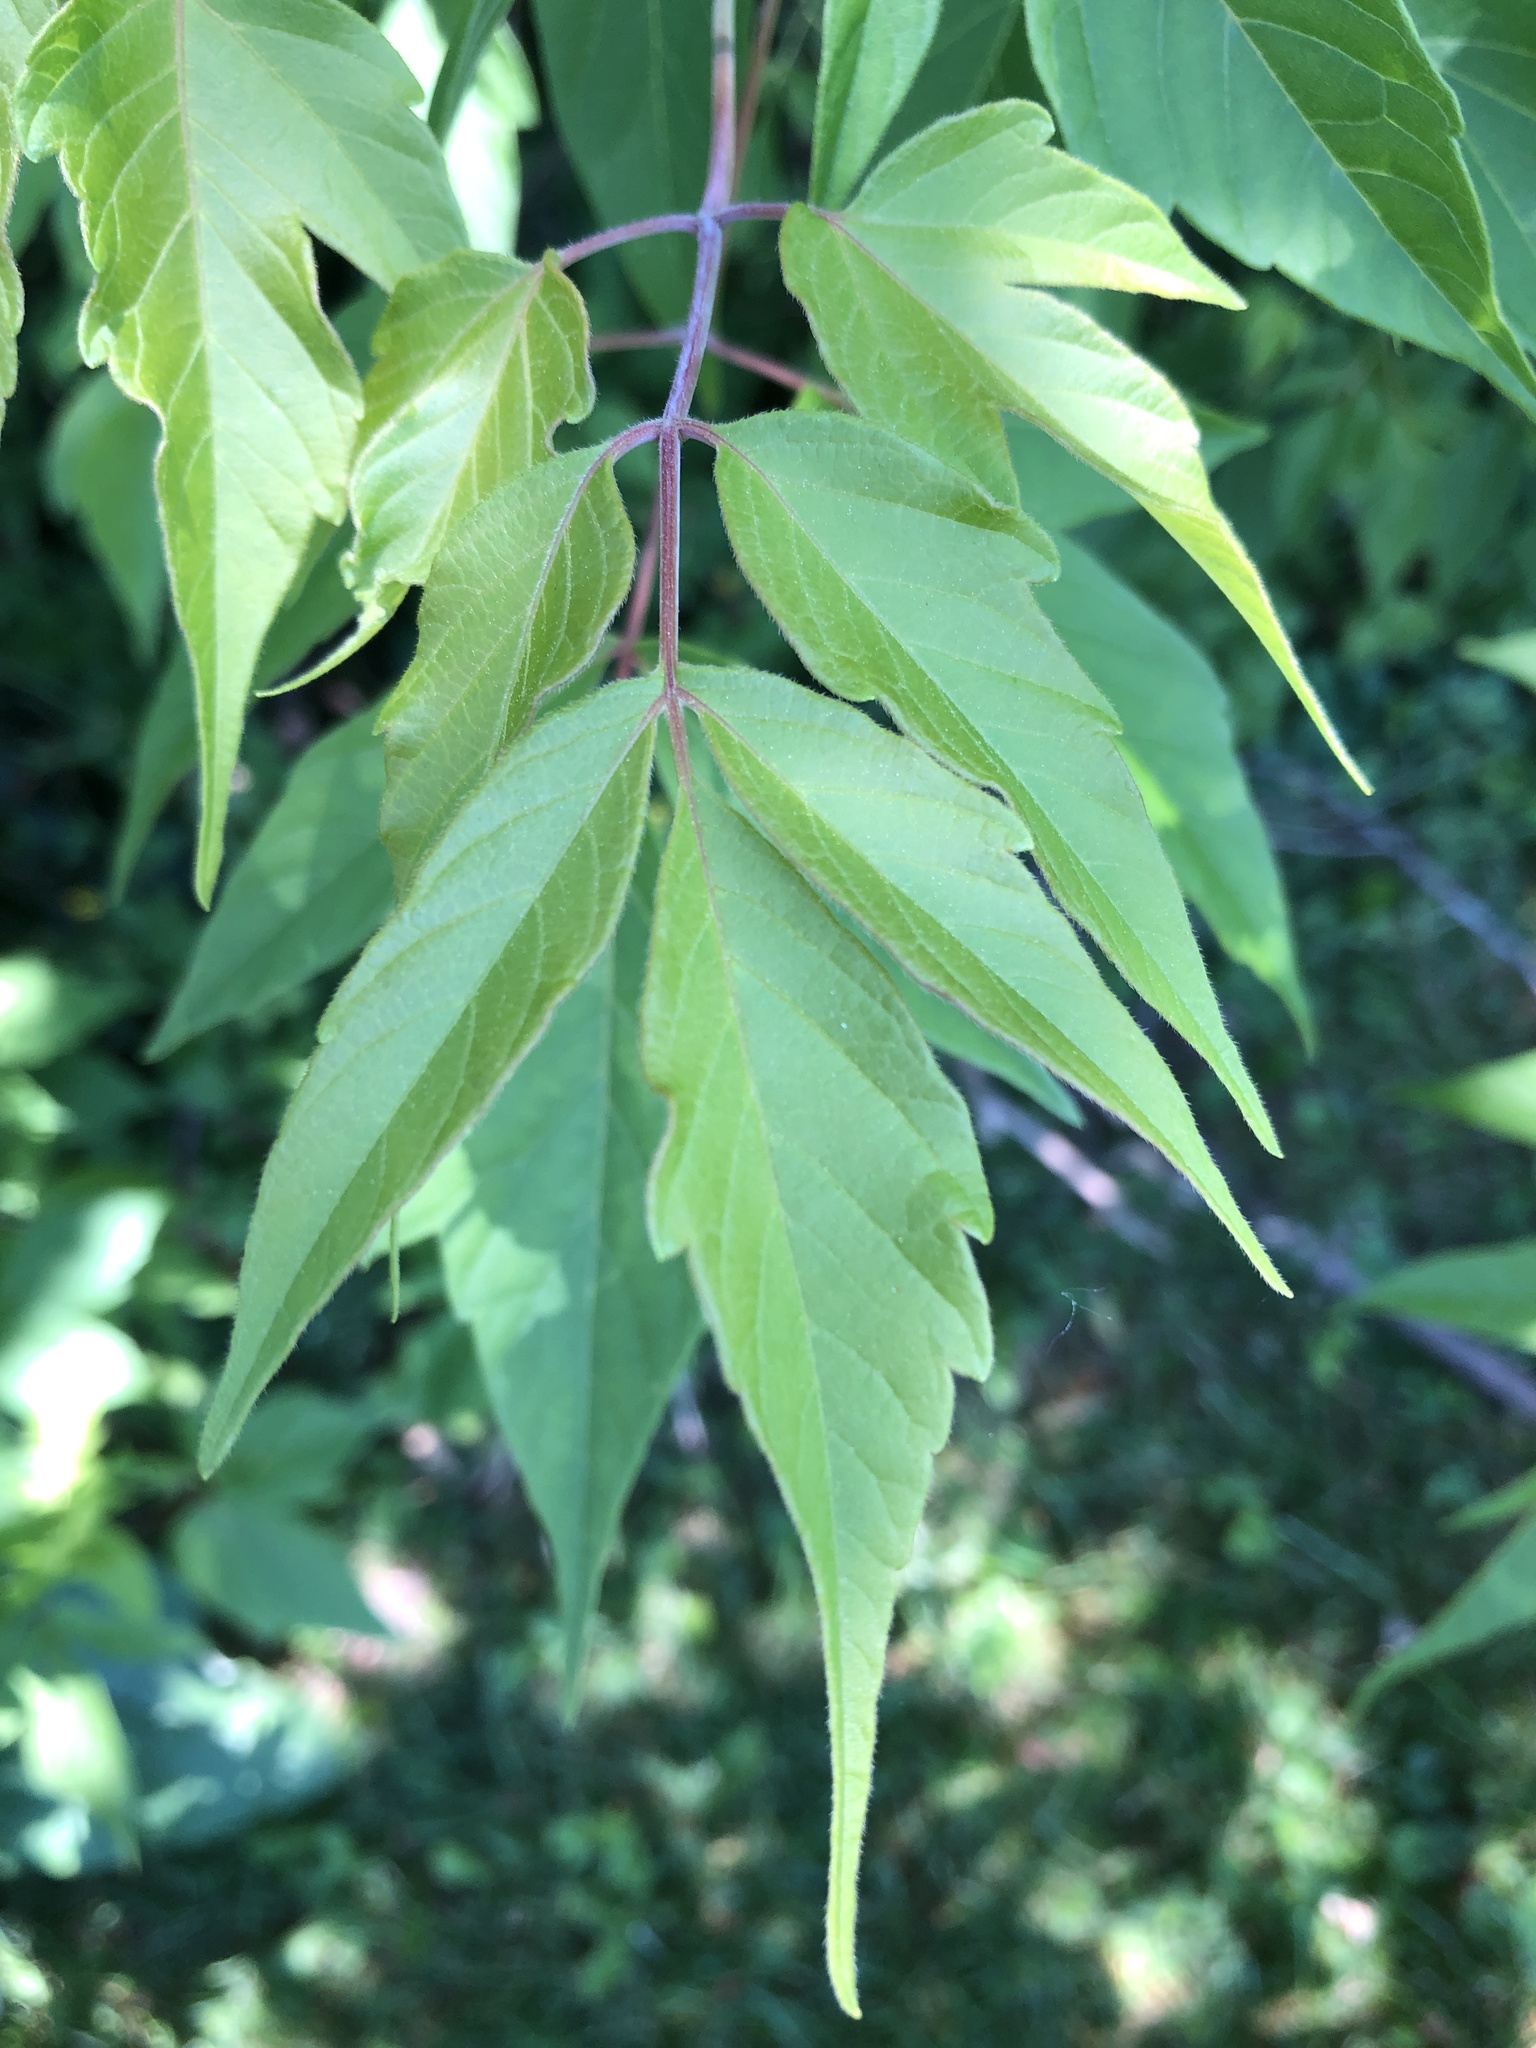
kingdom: Plantae
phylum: Tracheophyta
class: Magnoliopsida
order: Sapindales
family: Sapindaceae
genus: Acer
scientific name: Acer negundo
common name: Ashleaf maple
